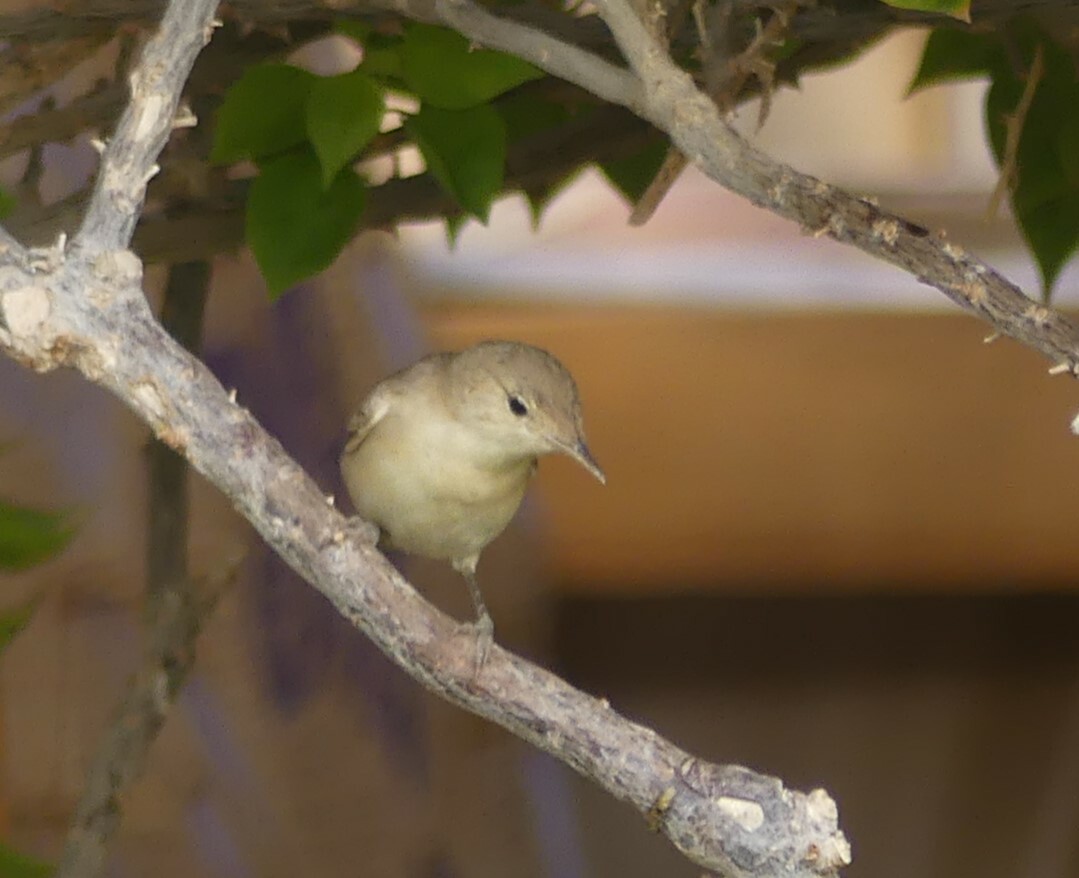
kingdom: Animalia
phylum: Chordata
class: Aves
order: Passeriformes
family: Acrocephalidae
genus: Iduna
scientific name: Iduna pallida
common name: Eastern olivaceous warbler
